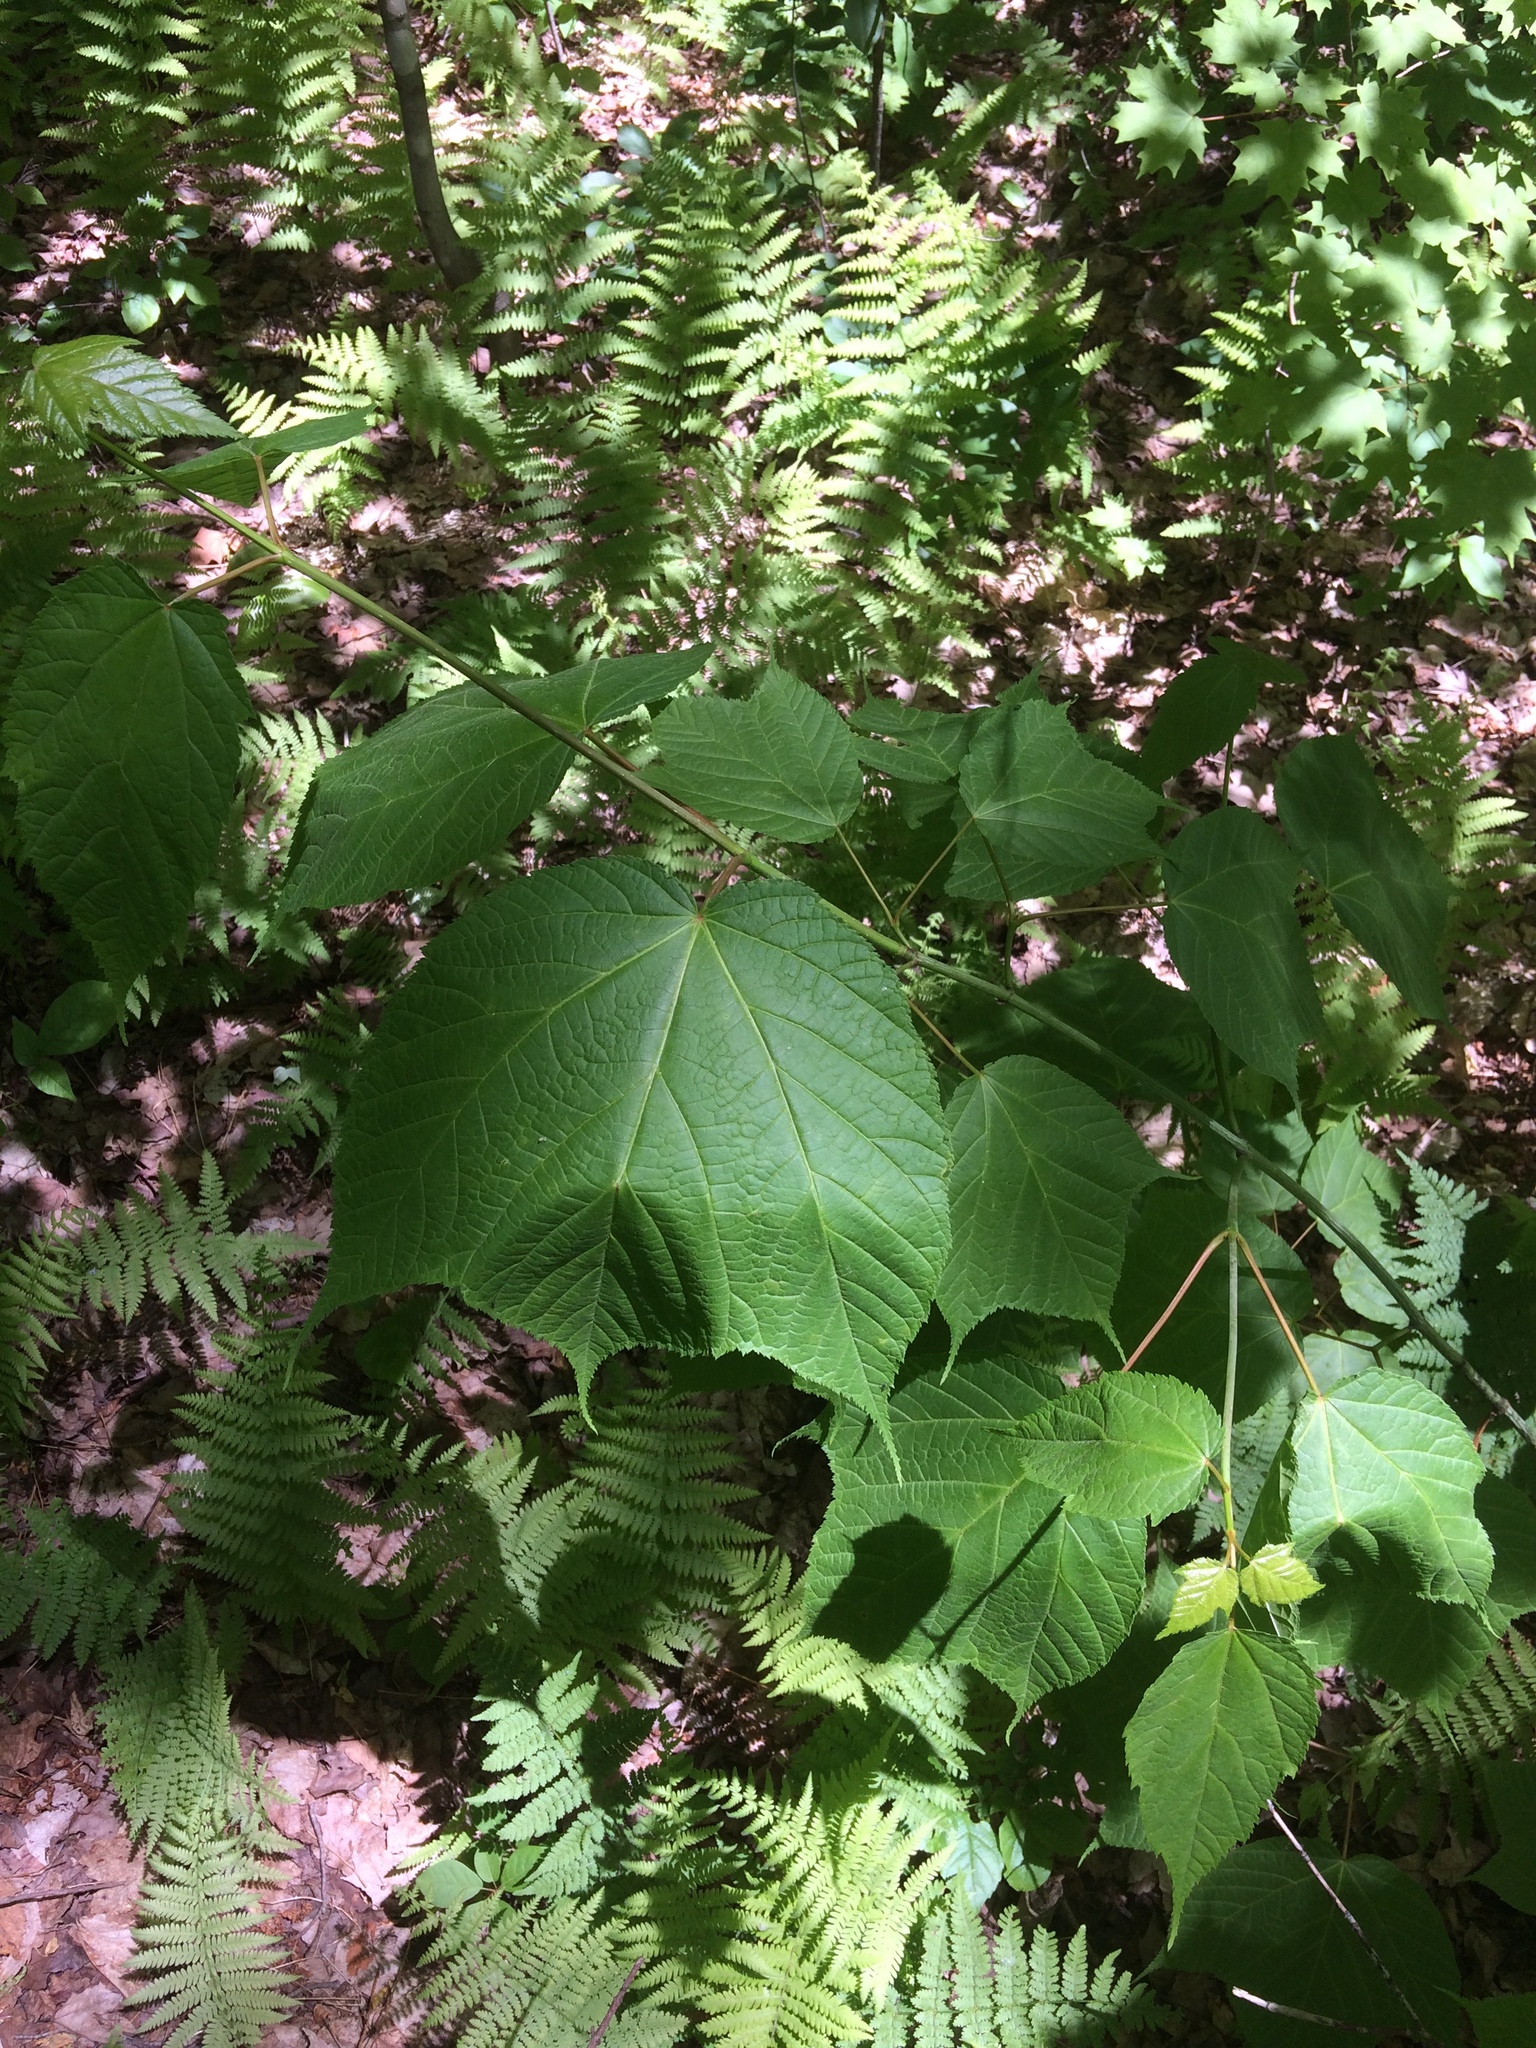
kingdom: Plantae
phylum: Tracheophyta
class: Magnoliopsida
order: Sapindales
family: Sapindaceae
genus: Acer
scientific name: Acer pensylvanicum
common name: Moosewood
